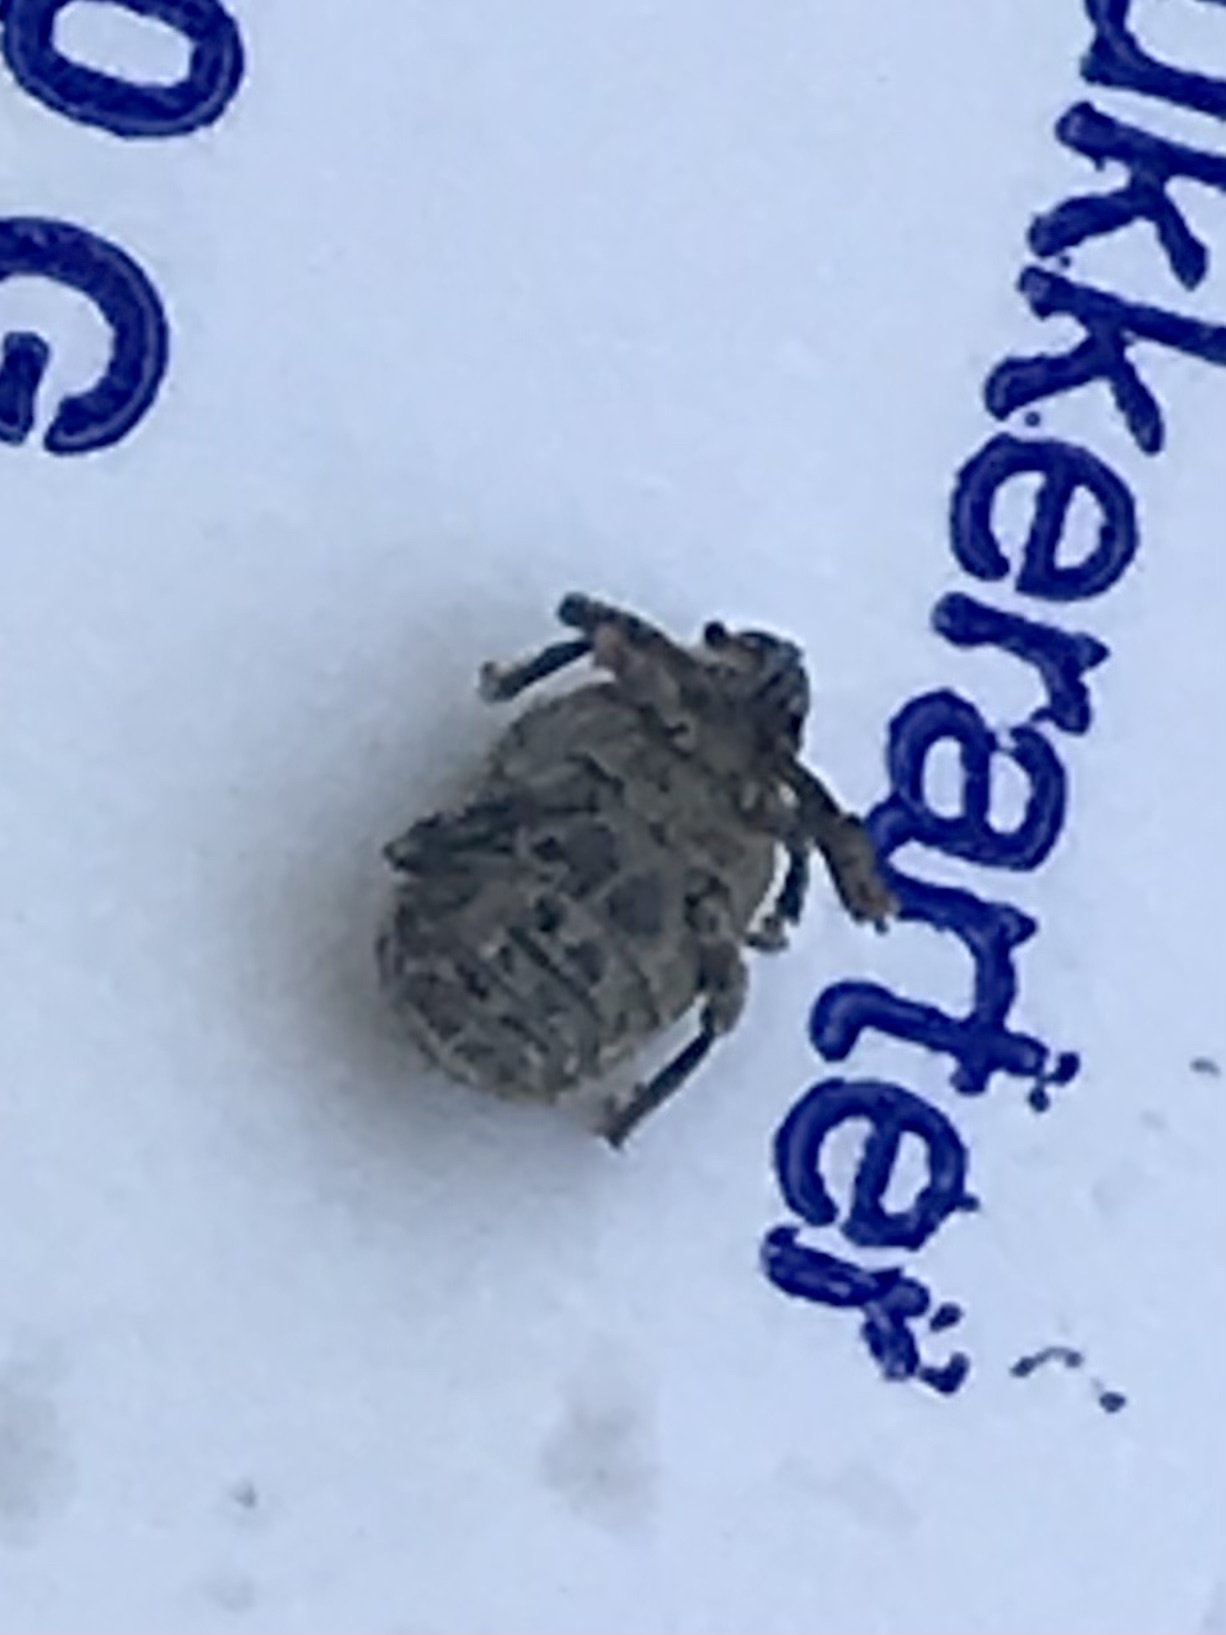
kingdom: Animalia
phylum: Arthropoda
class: Insecta
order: Coleoptera
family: Curculionidae
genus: Ceutorhynchus
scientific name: Ceutorhynchus pallidactylus
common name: Cabbage stem weavil
